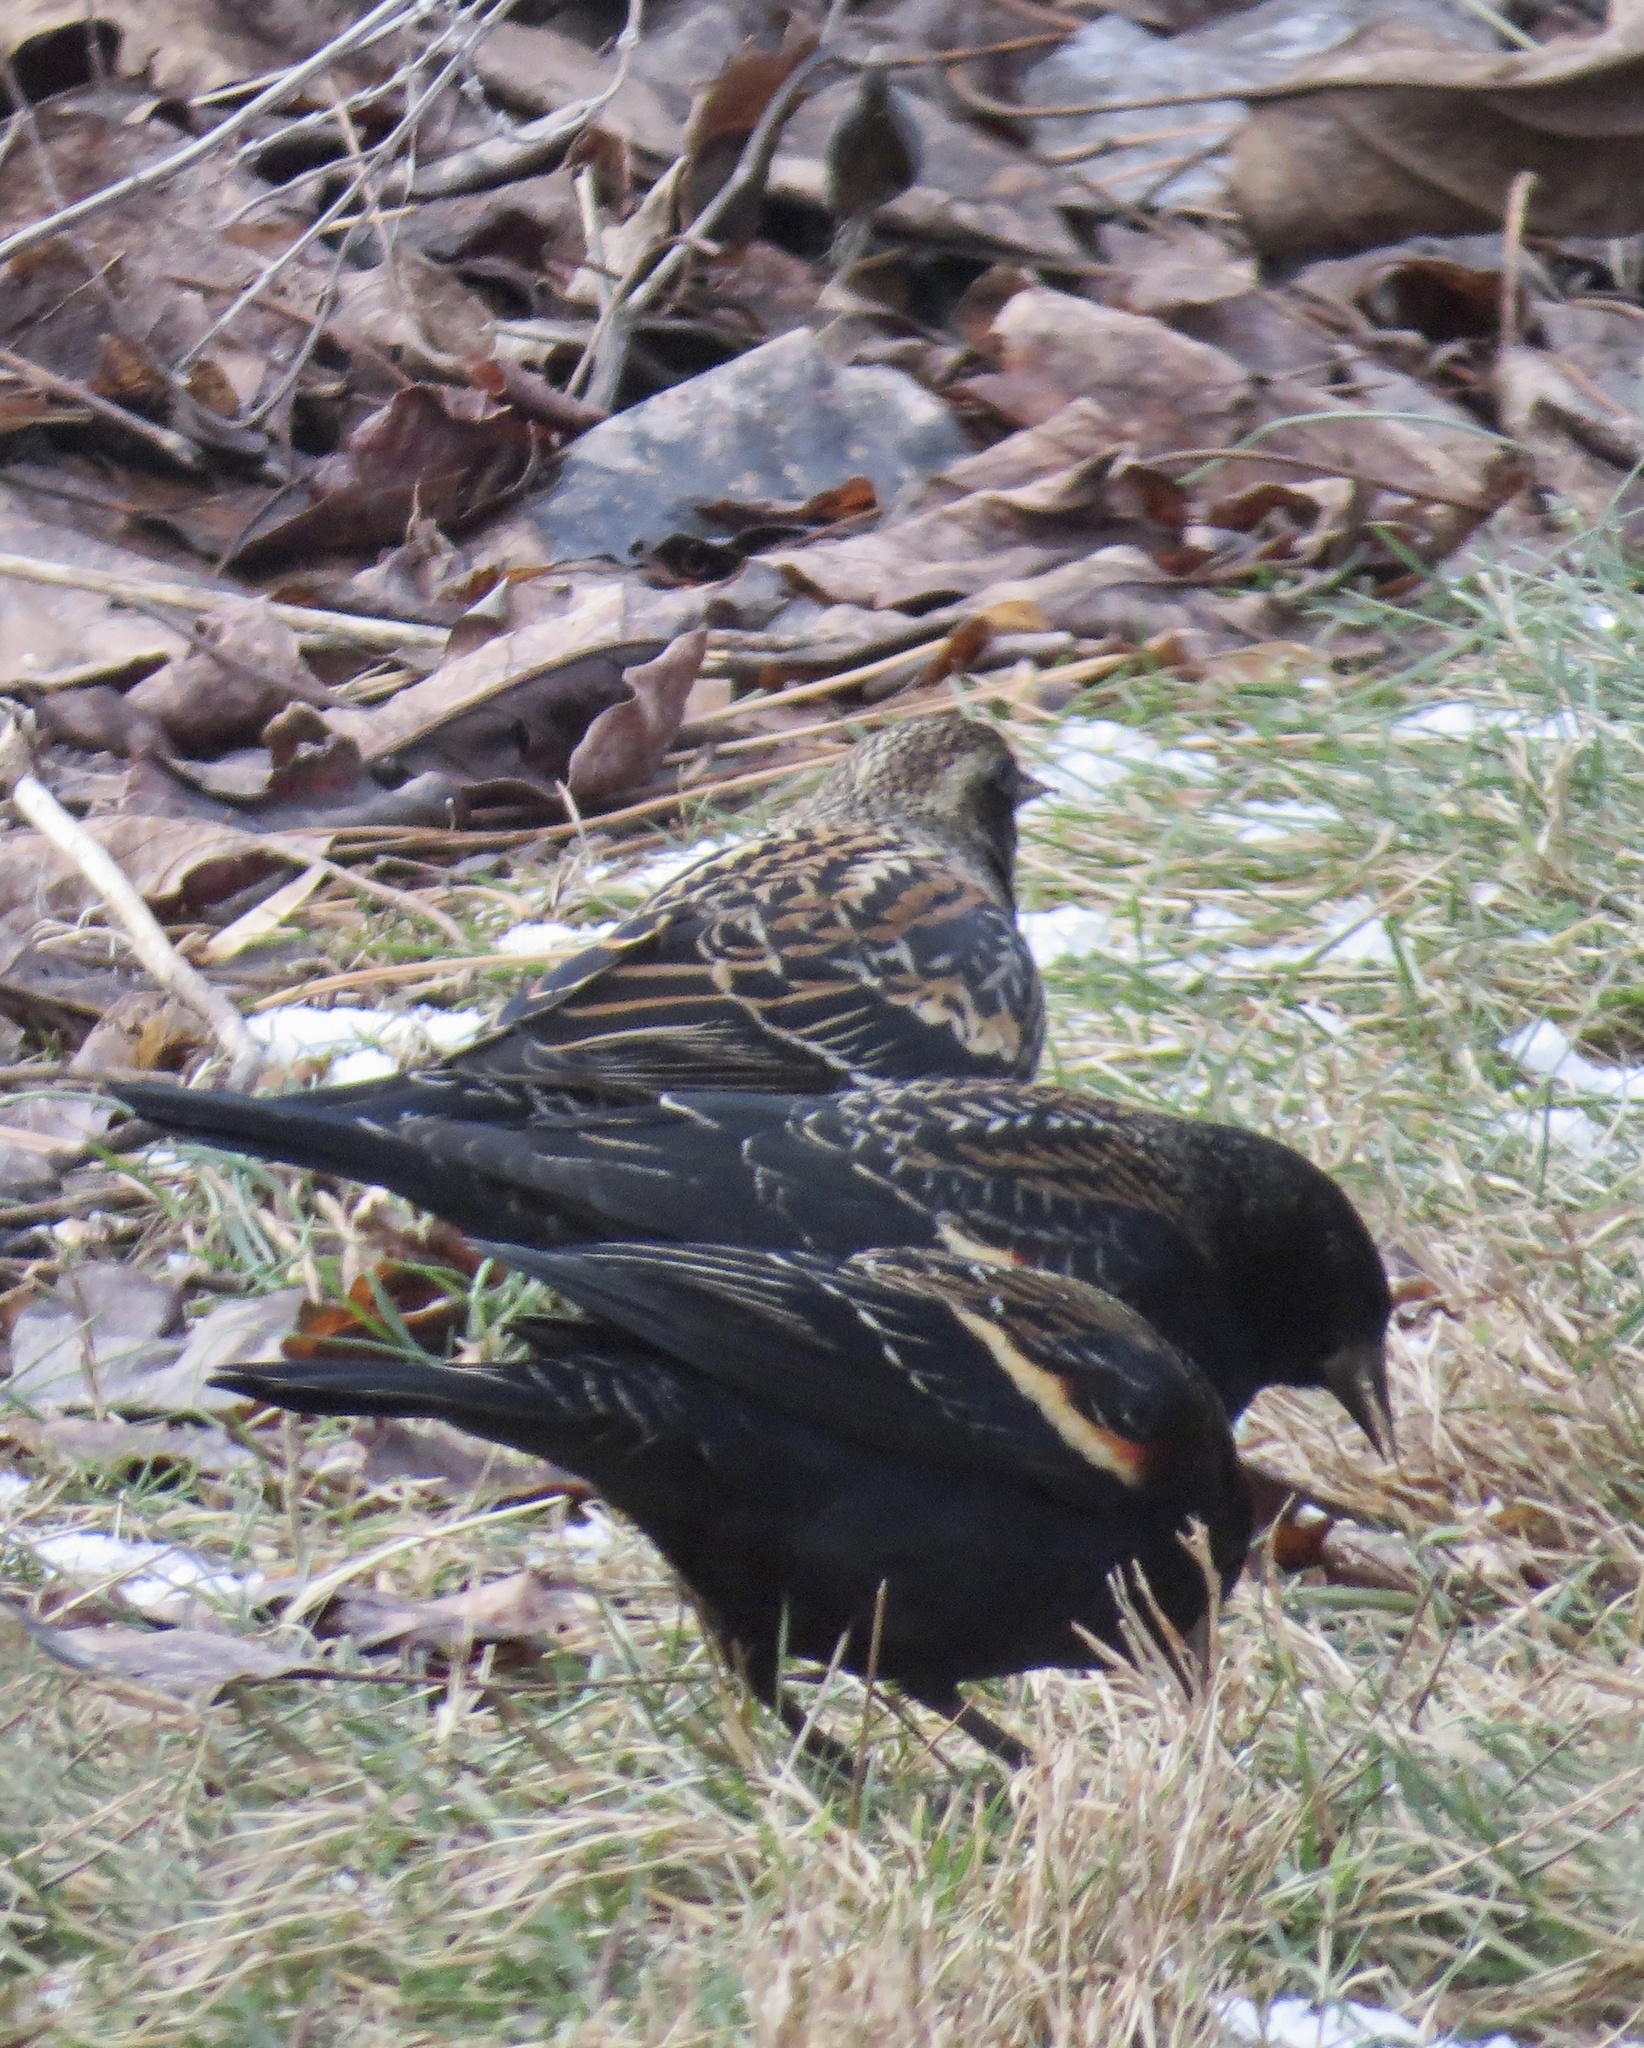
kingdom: Animalia
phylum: Chordata
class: Aves
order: Passeriformes
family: Icteridae
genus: Agelaius
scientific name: Agelaius phoeniceus
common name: Red-winged blackbird
